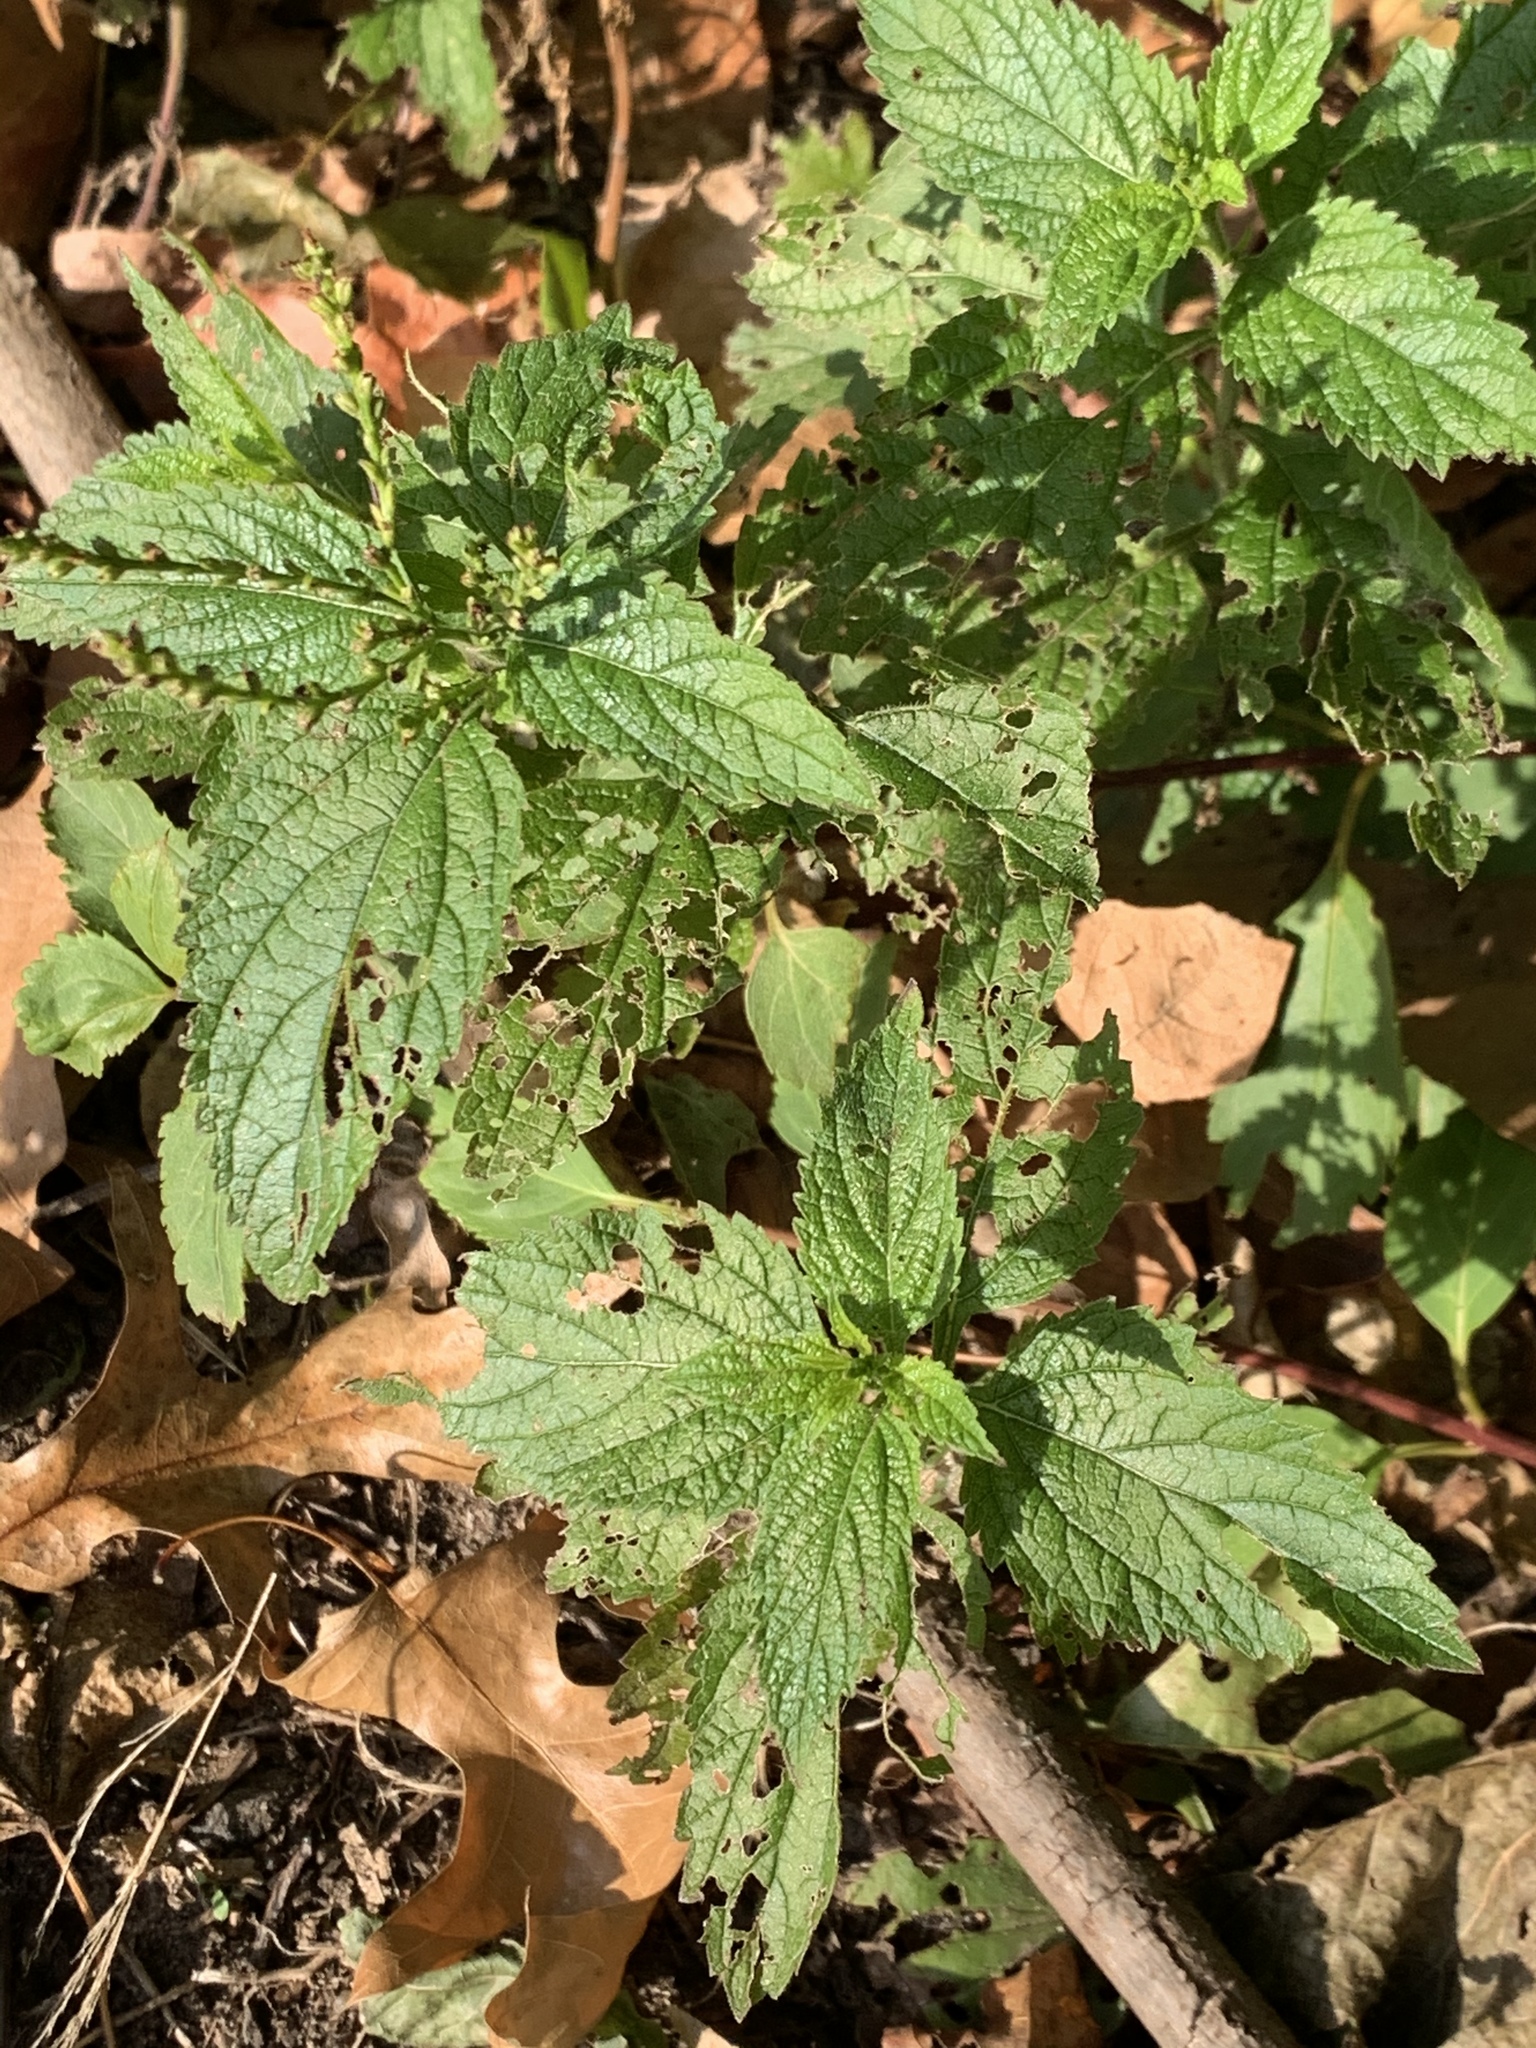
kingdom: Plantae
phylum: Tracheophyta
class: Magnoliopsida
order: Lamiales
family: Verbenaceae
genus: Verbena
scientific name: Verbena urticifolia
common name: Nettle-leaved vervain
